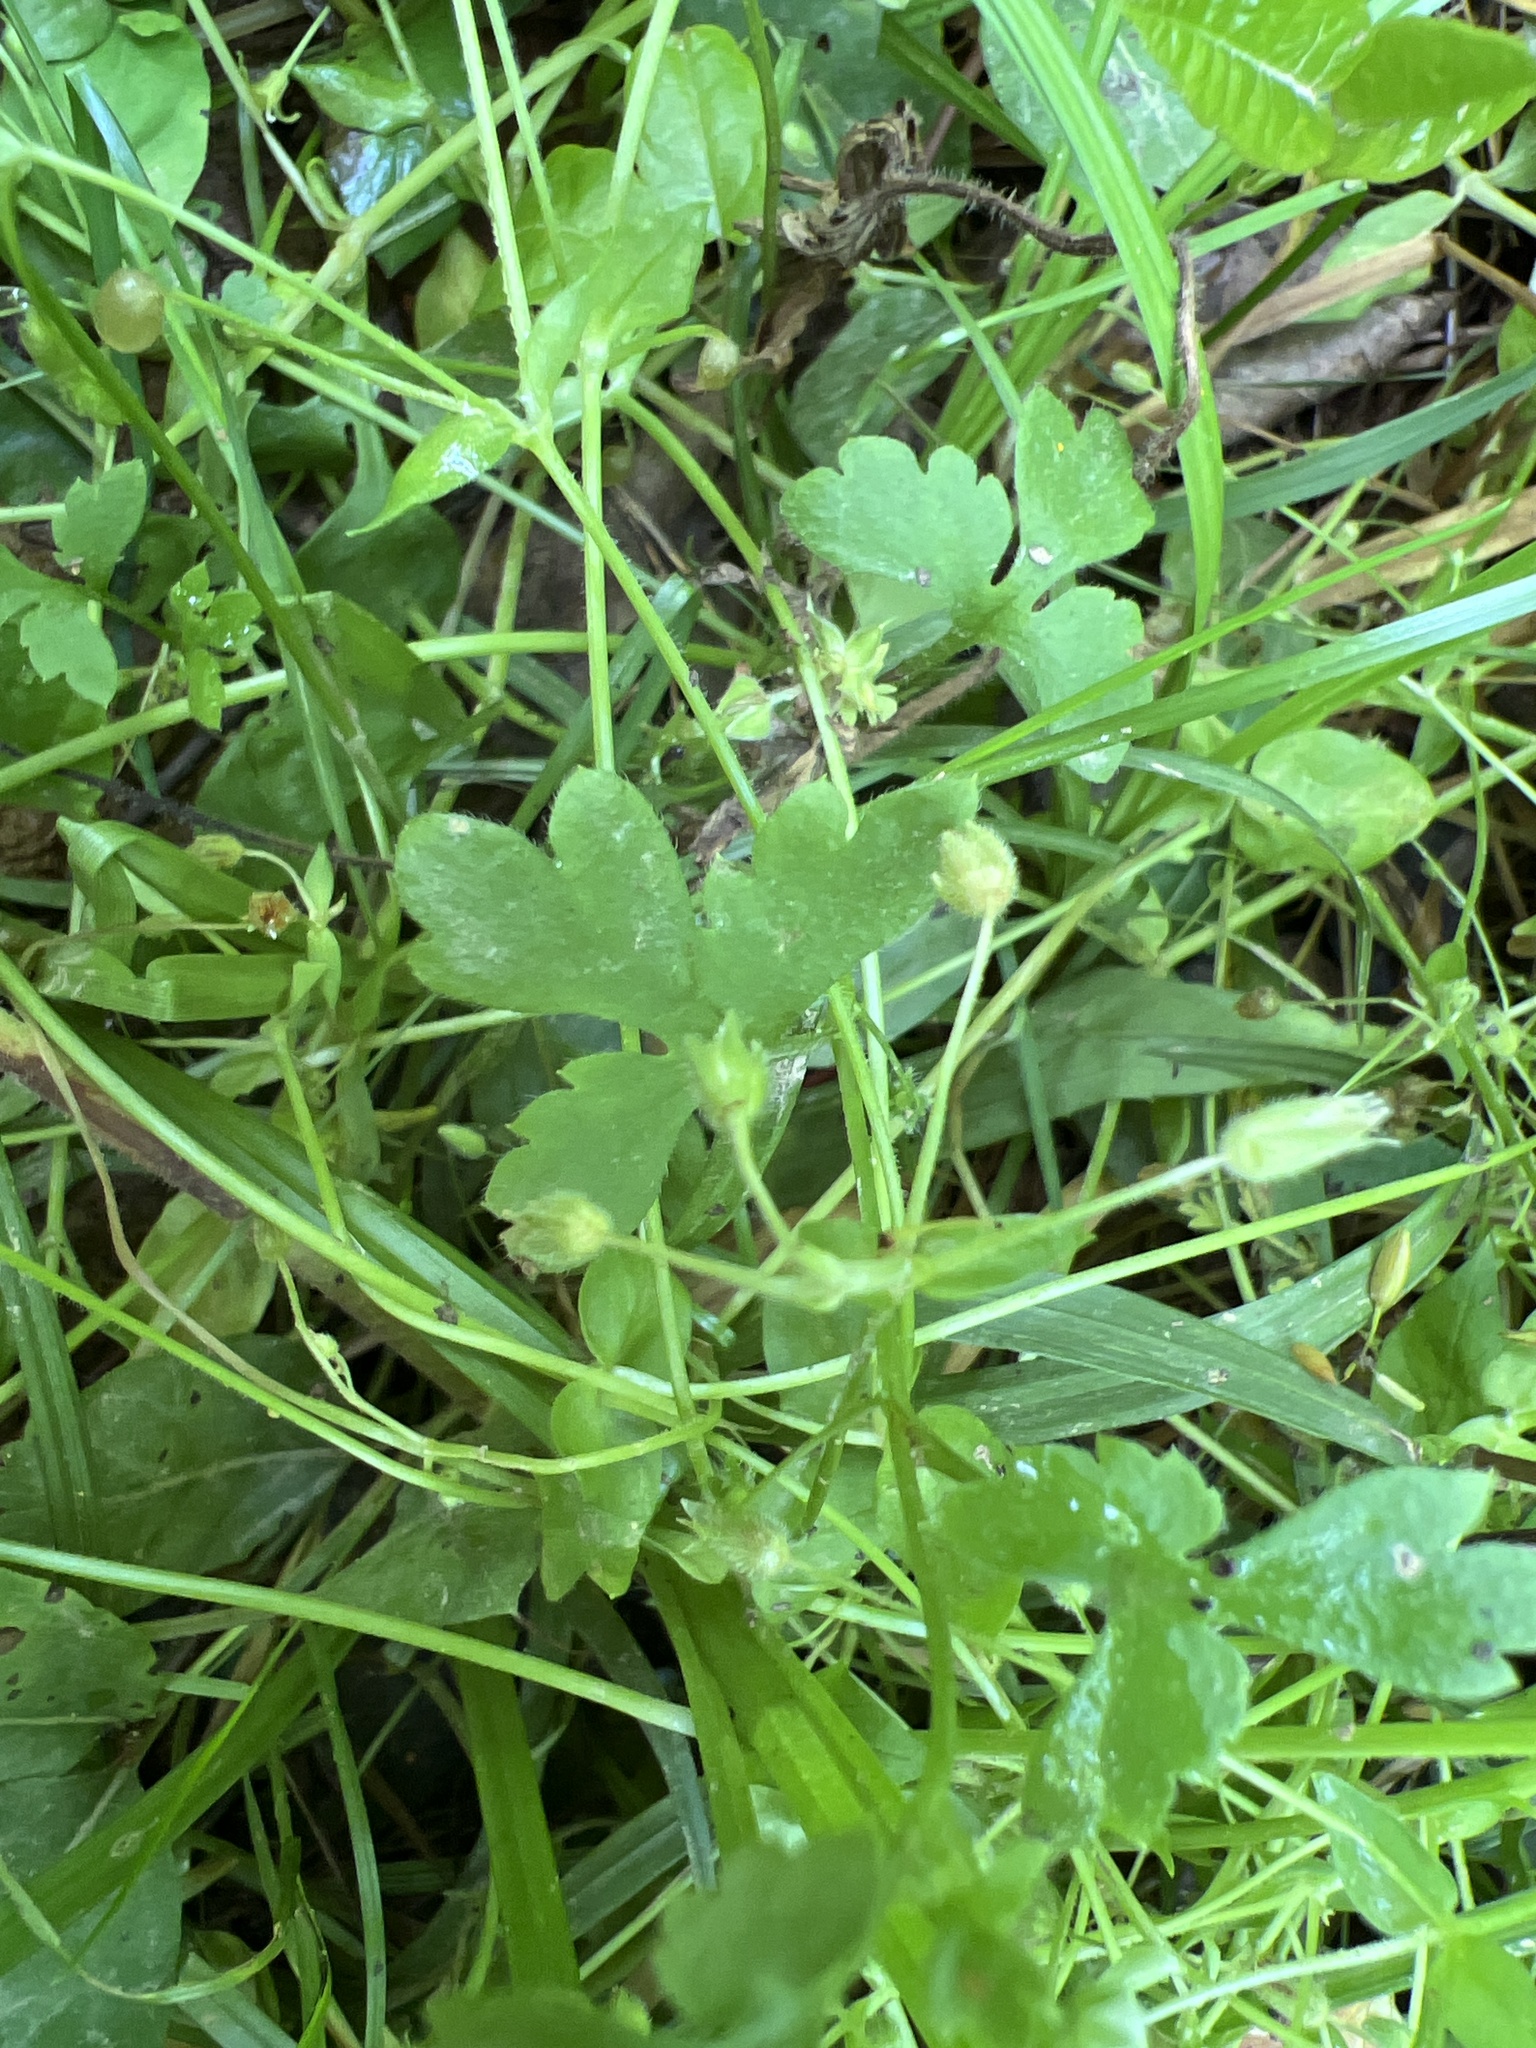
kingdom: Plantae
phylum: Tracheophyta
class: Magnoliopsida
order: Boraginales
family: Hydrophyllaceae
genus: Nemophila
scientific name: Nemophila aphylla
